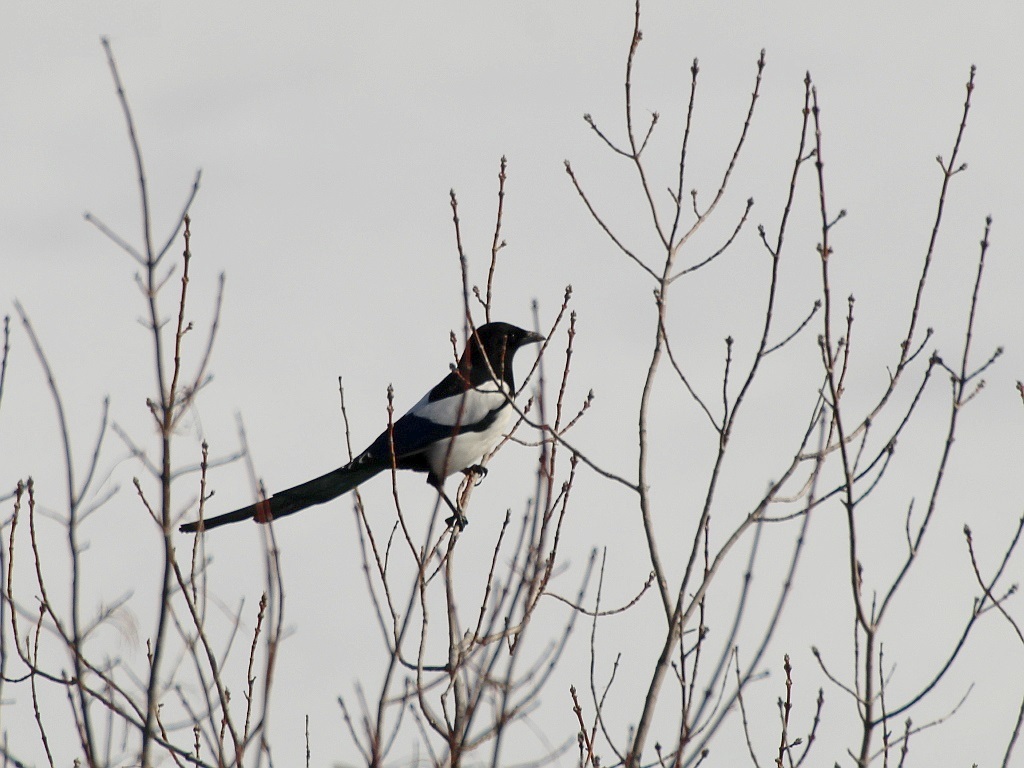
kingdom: Animalia
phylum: Chordata
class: Aves
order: Passeriformes
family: Corvidae
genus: Pica
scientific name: Pica pica
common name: Eurasian magpie
